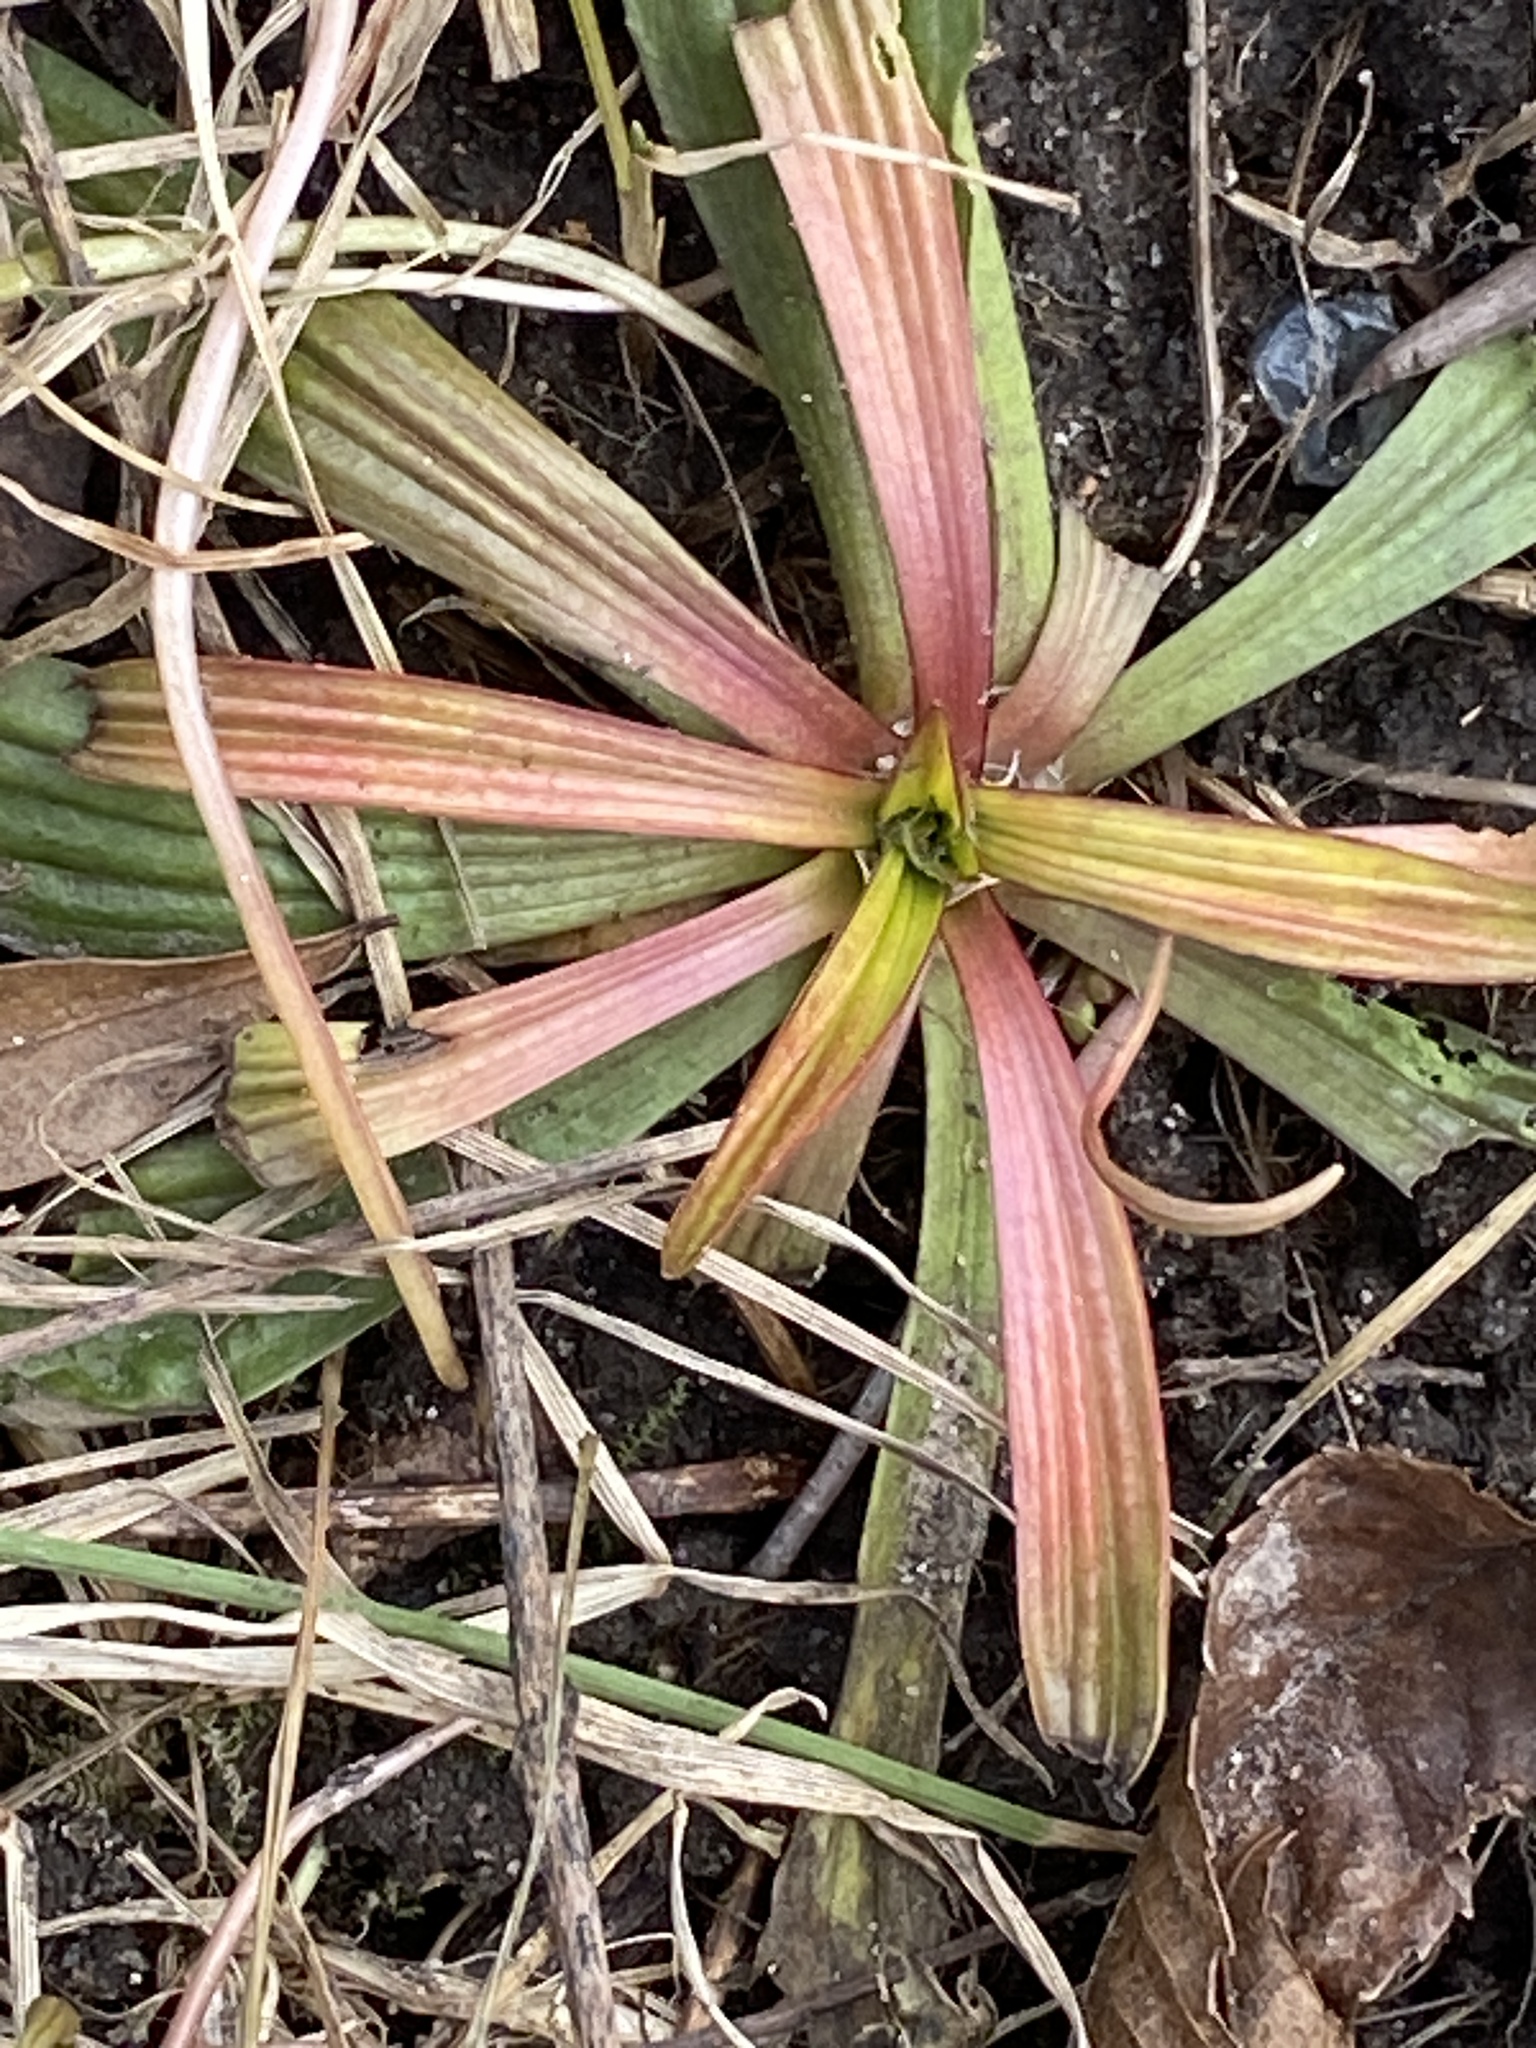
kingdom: Plantae
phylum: Tracheophyta
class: Magnoliopsida
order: Lamiales
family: Plantaginaceae
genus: Plantago
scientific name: Plantago lanceolata
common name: Ribwort plantain
